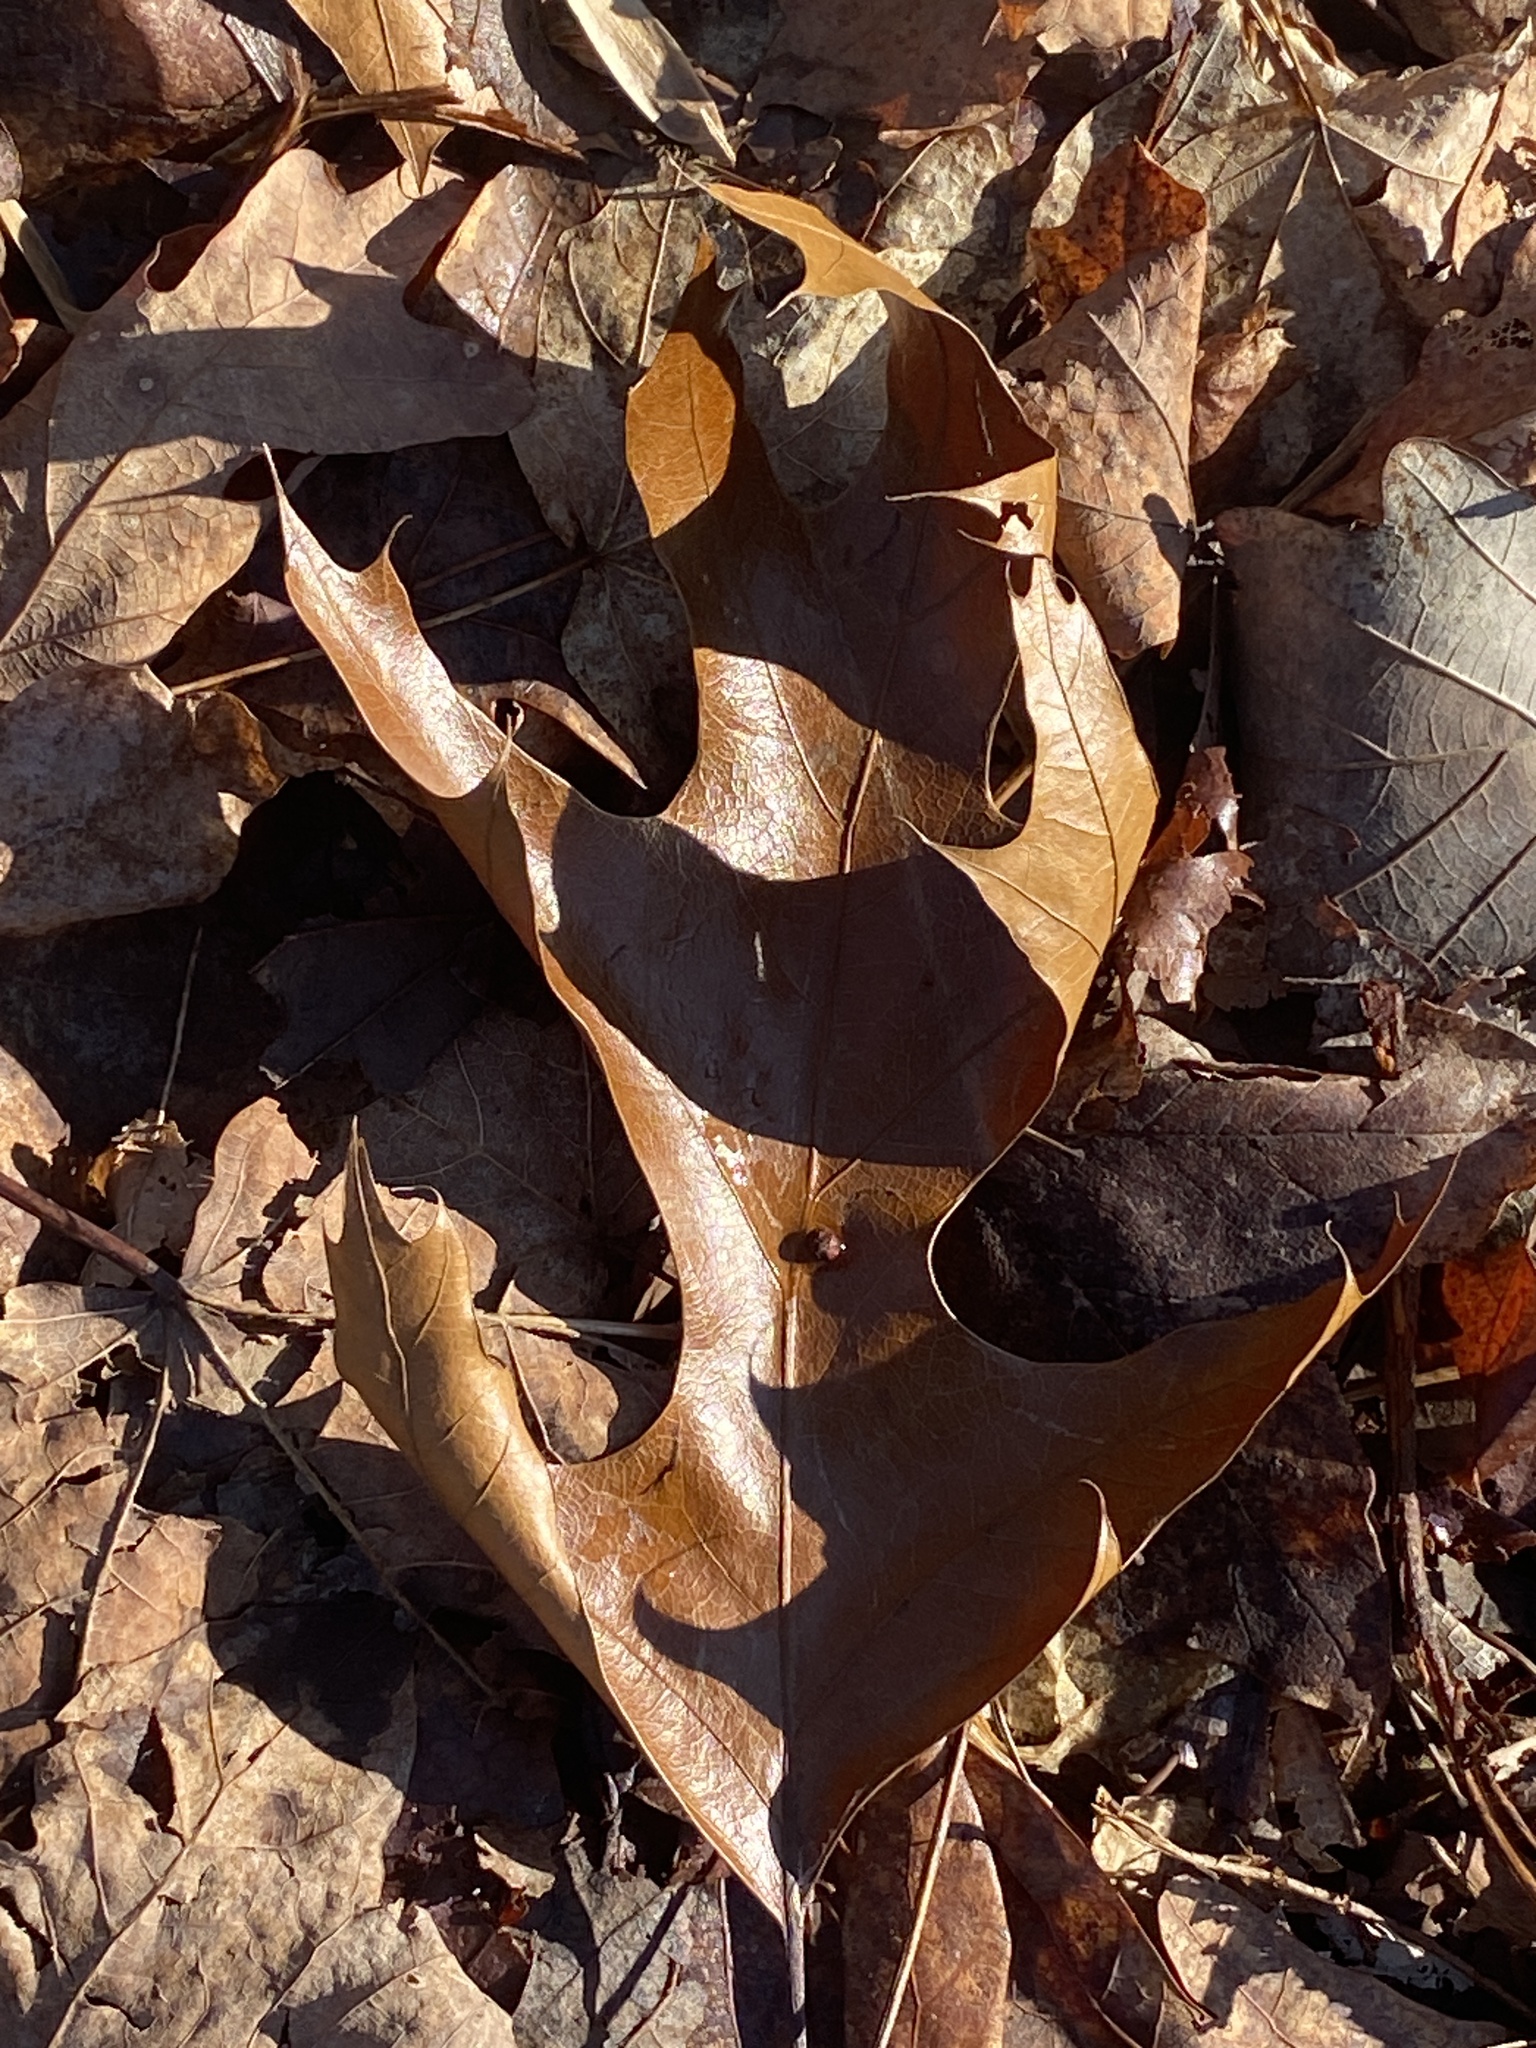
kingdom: Plantae
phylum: Tracheophyta
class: Magnoliopsida
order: Fagales
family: Fagaceae
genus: Quercus
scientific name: Quercus
